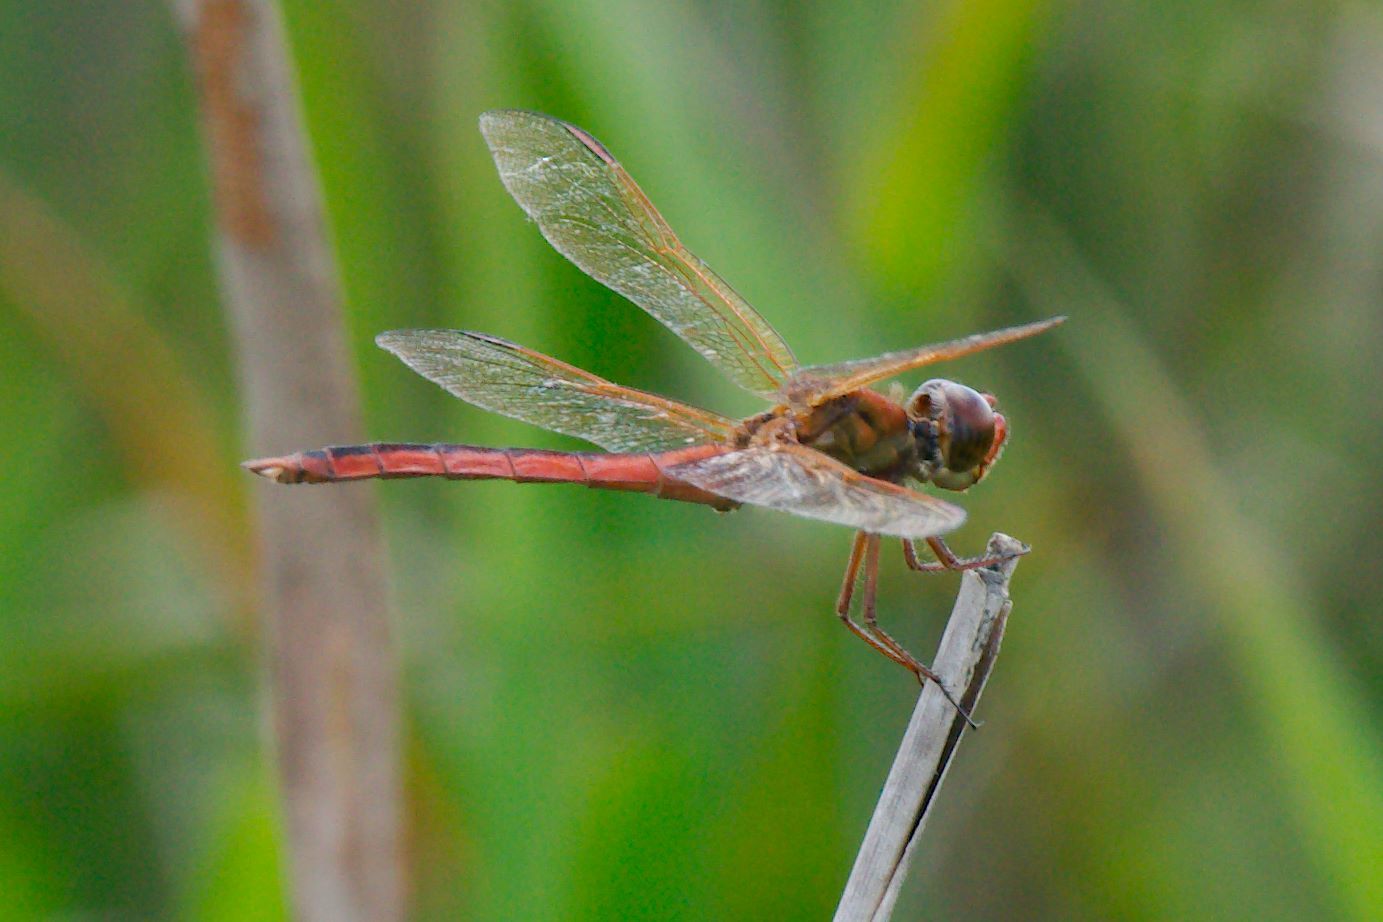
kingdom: Animalia
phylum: Arthropoda
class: Insecta
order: Odonata
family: Libellulidae
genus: Libellula
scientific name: Libellula needhami
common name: Needham's skimmer
